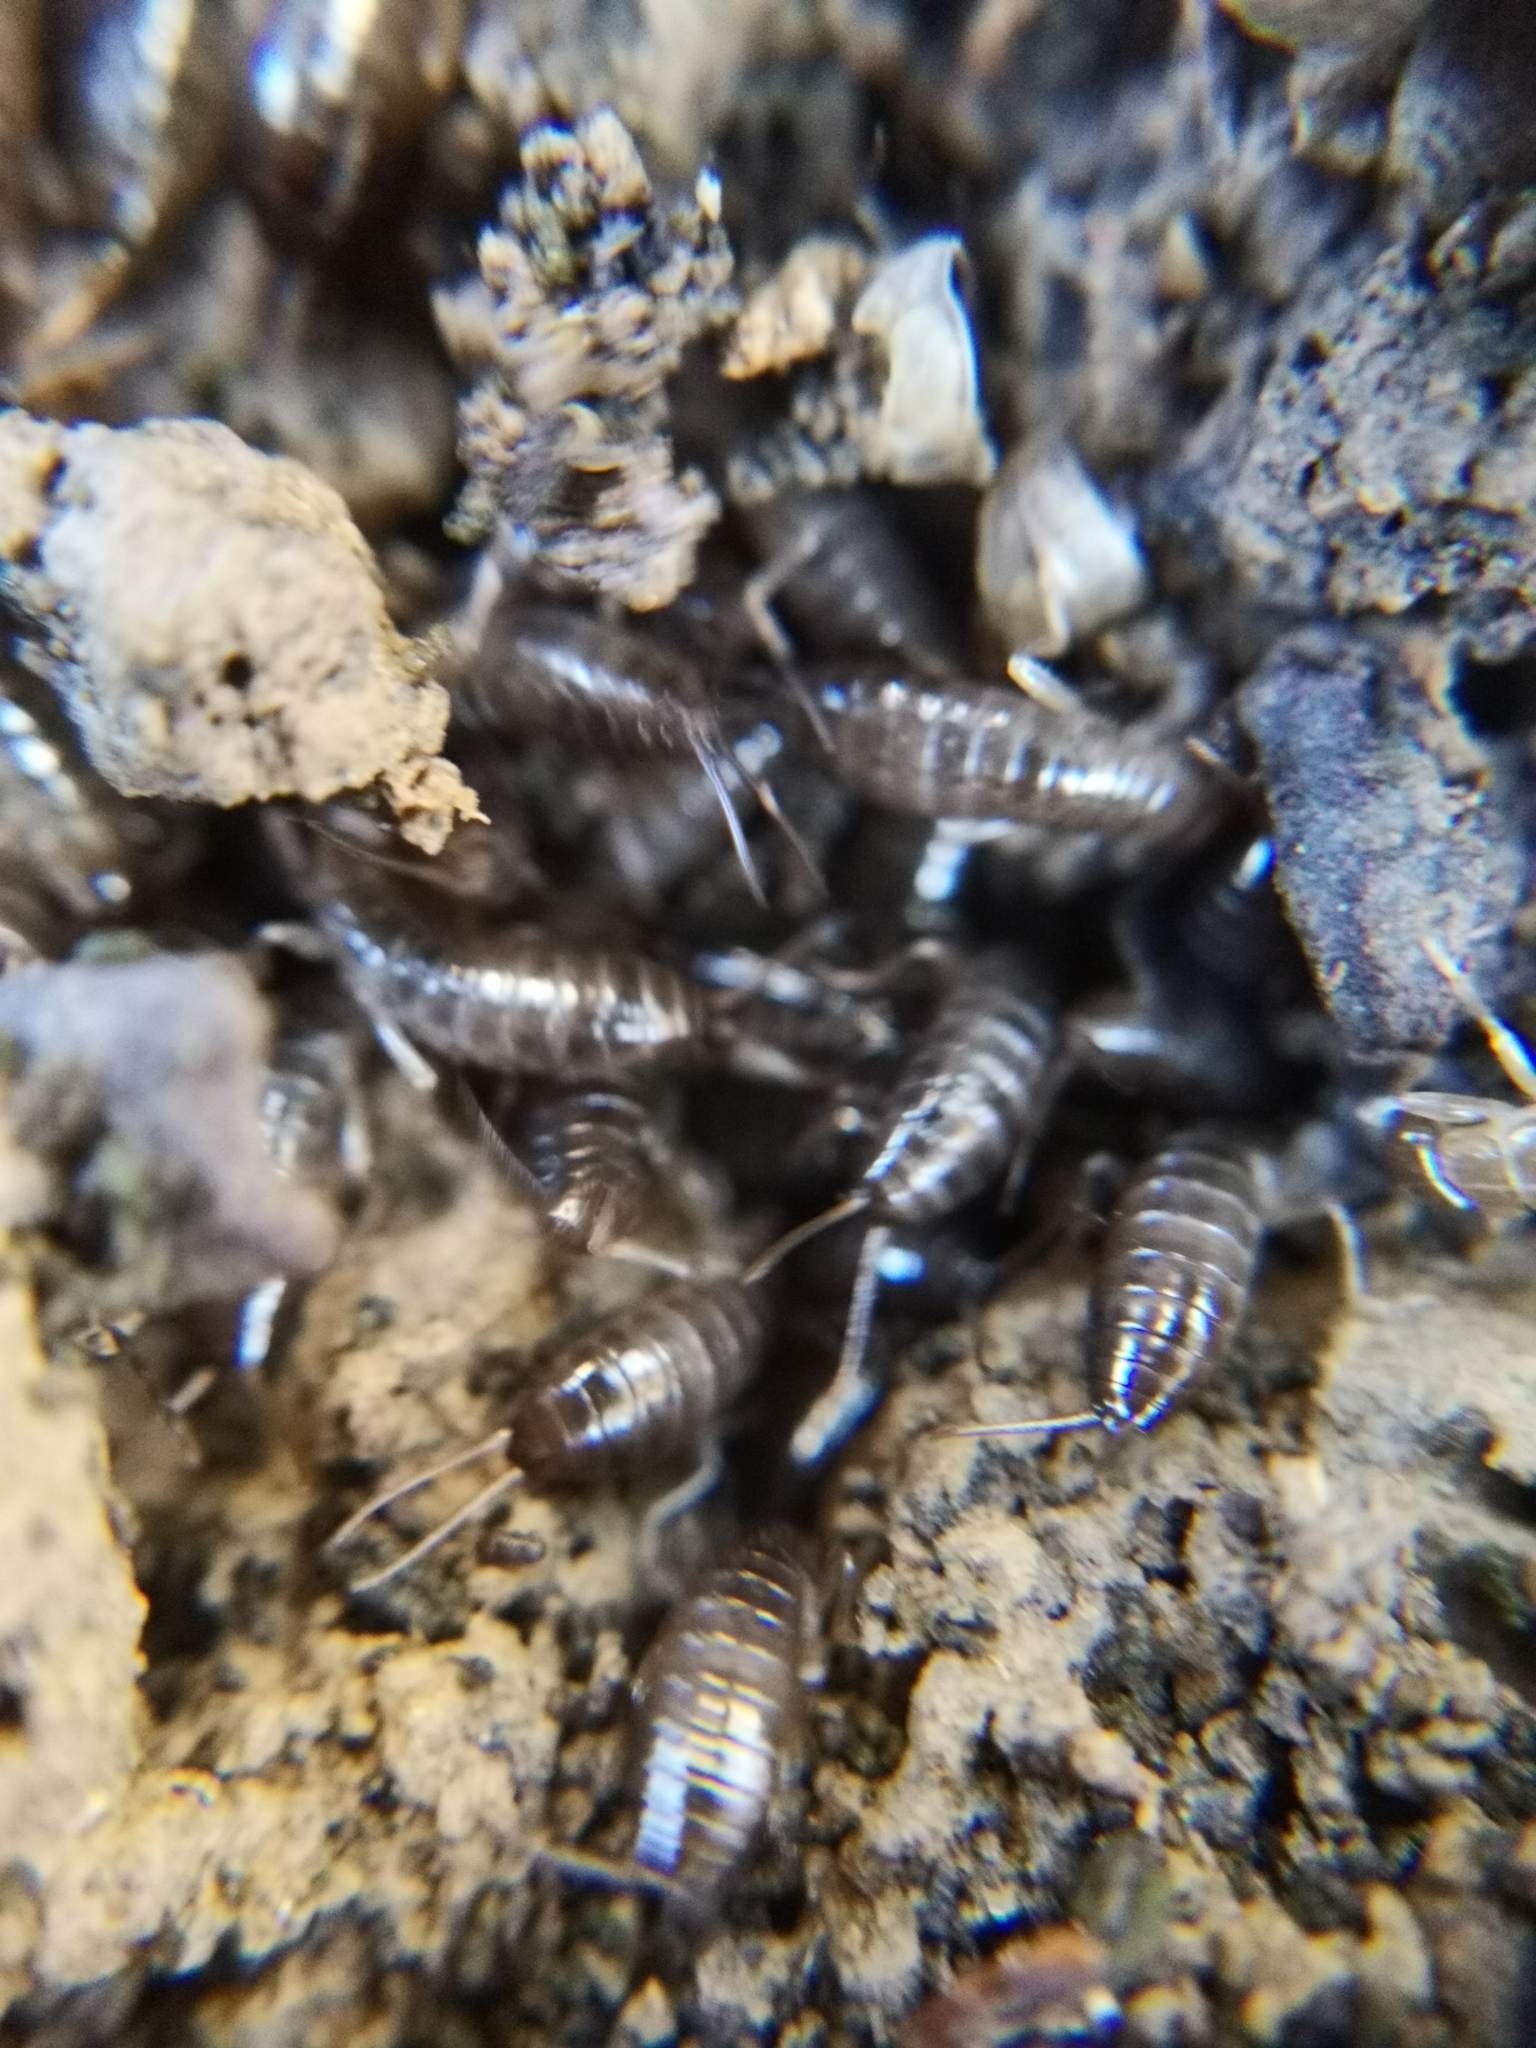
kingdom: Animalia
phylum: Arthropoda
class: Insecta
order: Dermaptera
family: Forficulidae
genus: Forficula
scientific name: Forficula
